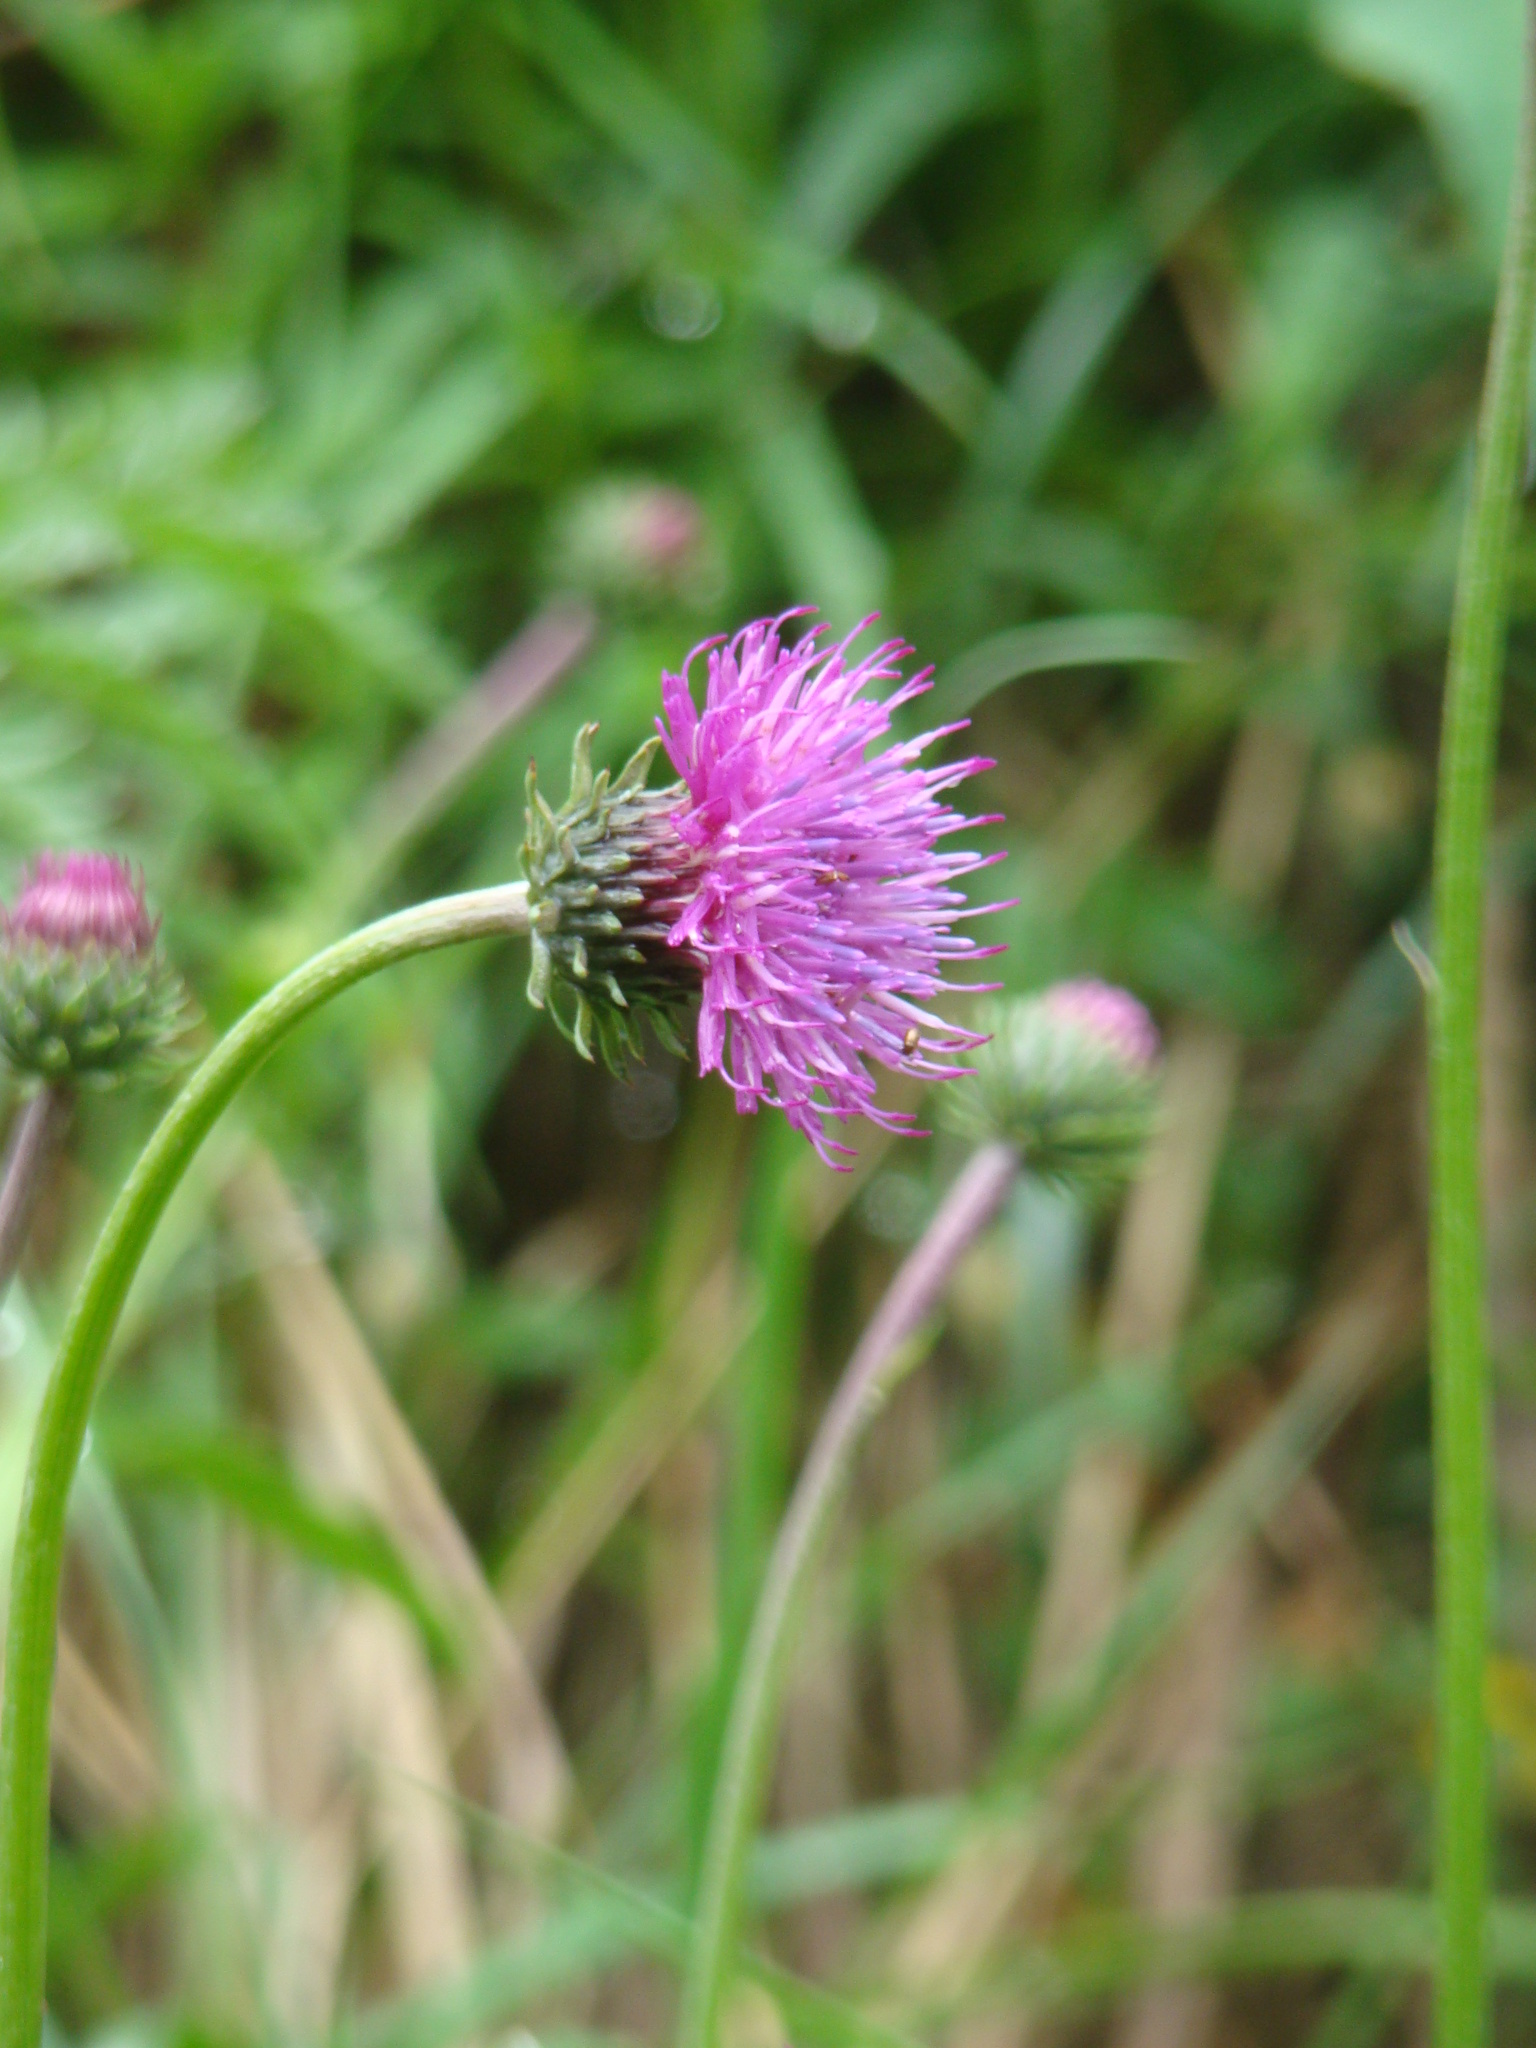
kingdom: Plantae
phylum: Tracheophyta
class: Magnoliopsida
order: Asterales
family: Asteraceae
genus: Carduus
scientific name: Carduus defloratus
